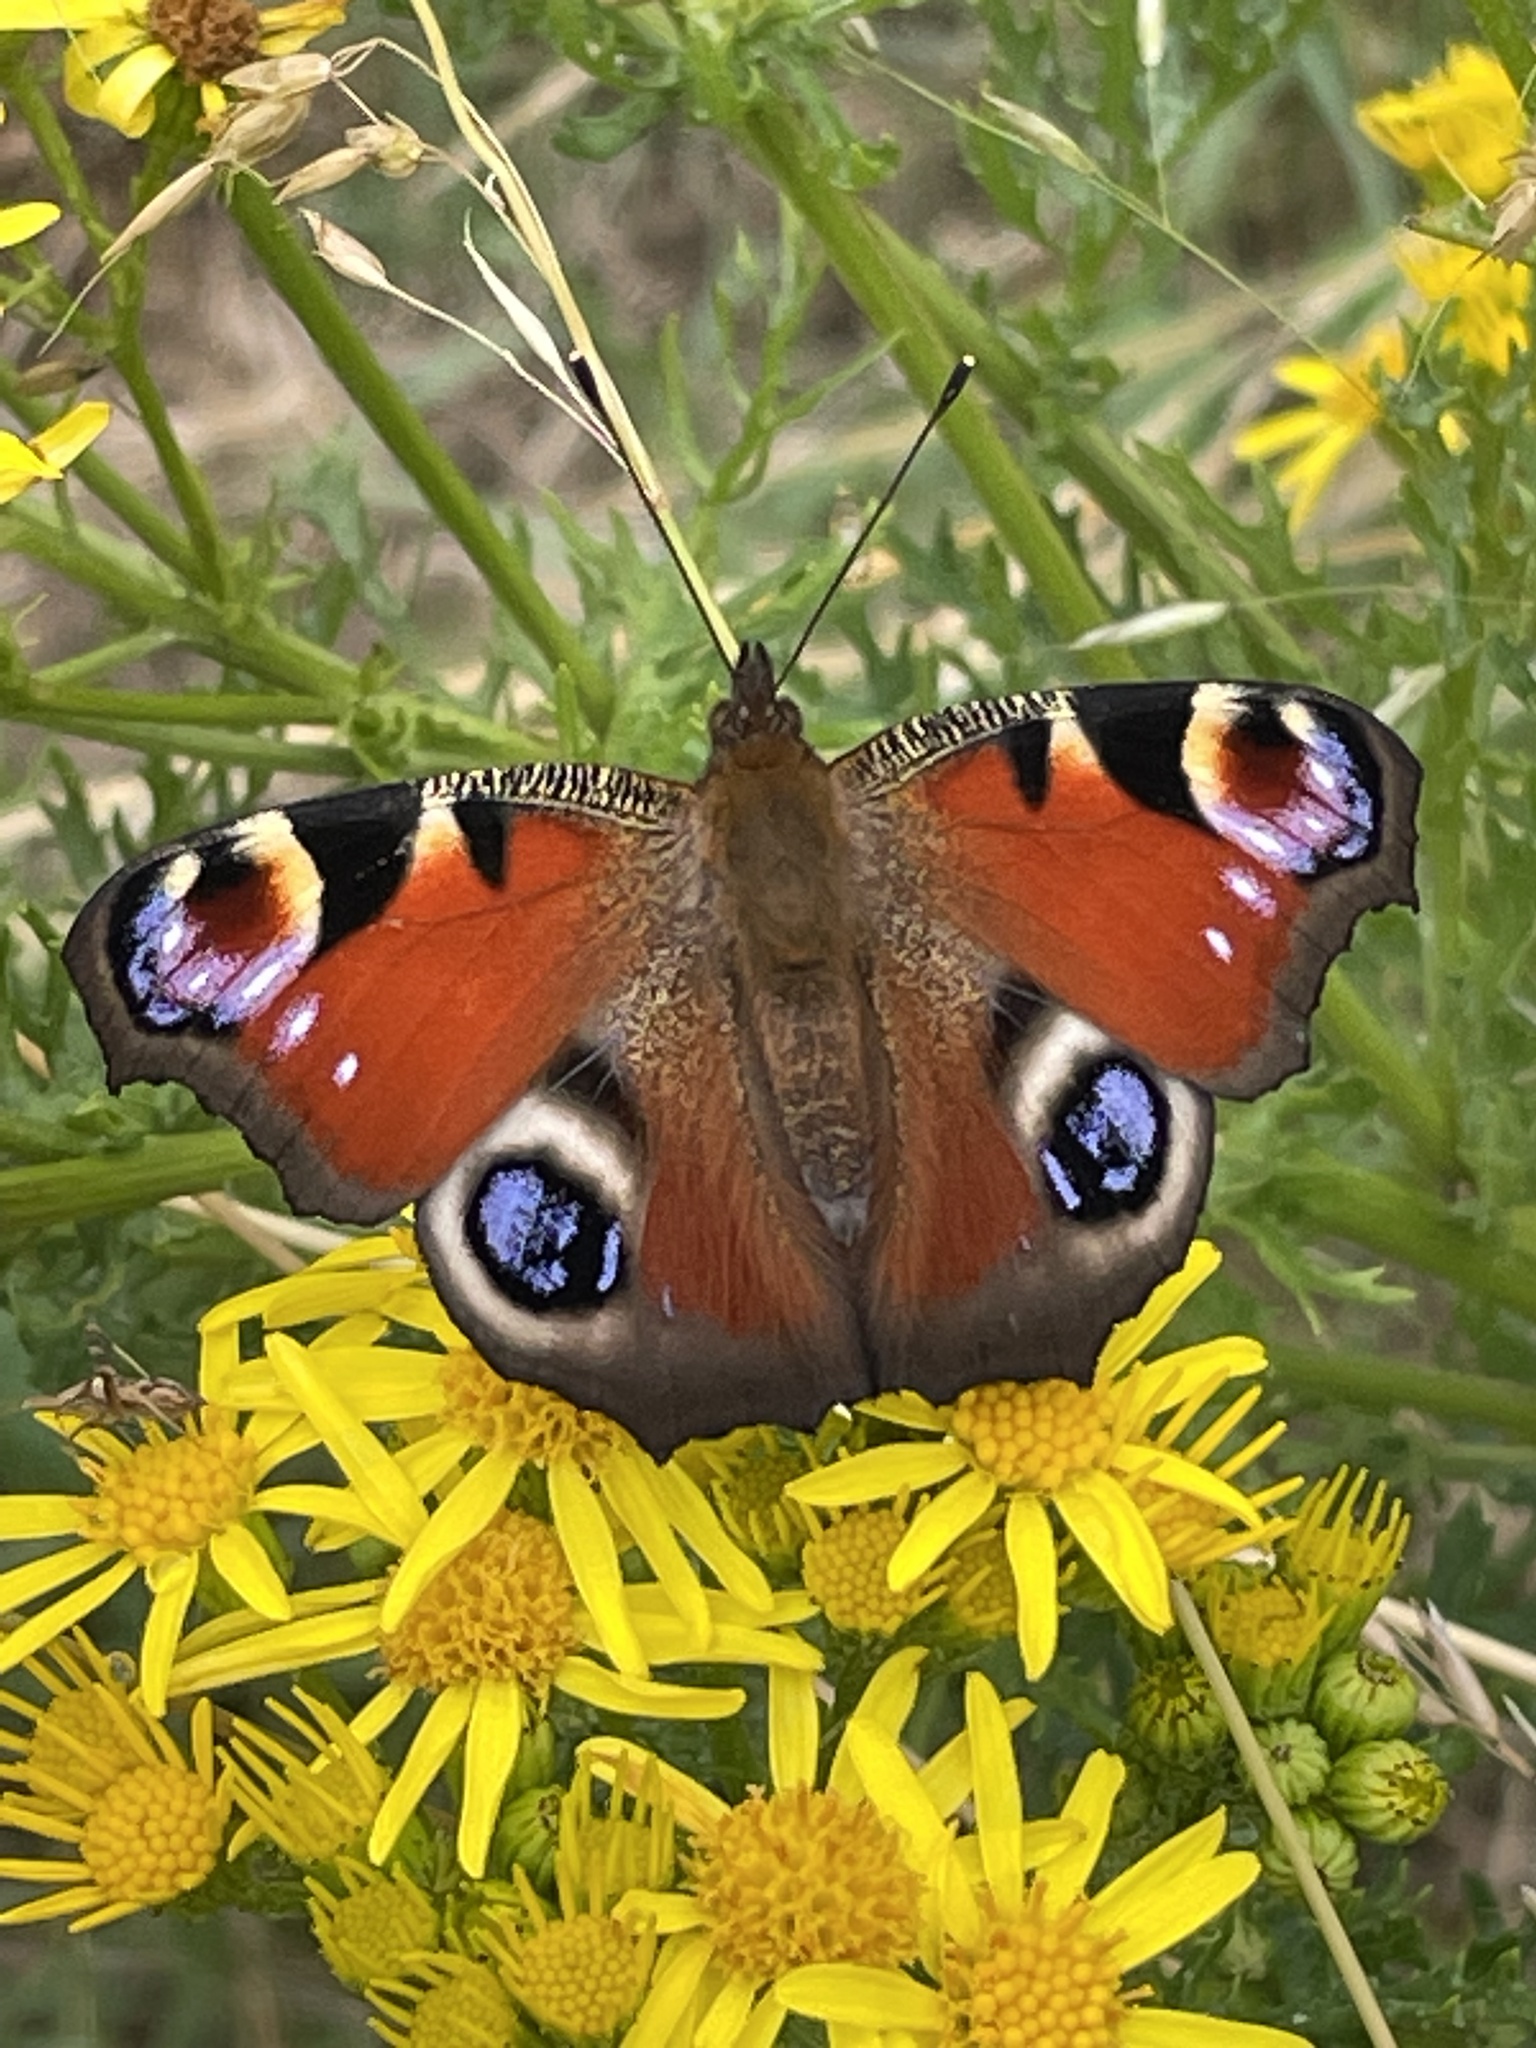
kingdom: Animalia
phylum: Arthropoda
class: Insecta
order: Lepidoptera
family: Nymphalidae
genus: Aglais
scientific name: Aglais io
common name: Peacock
